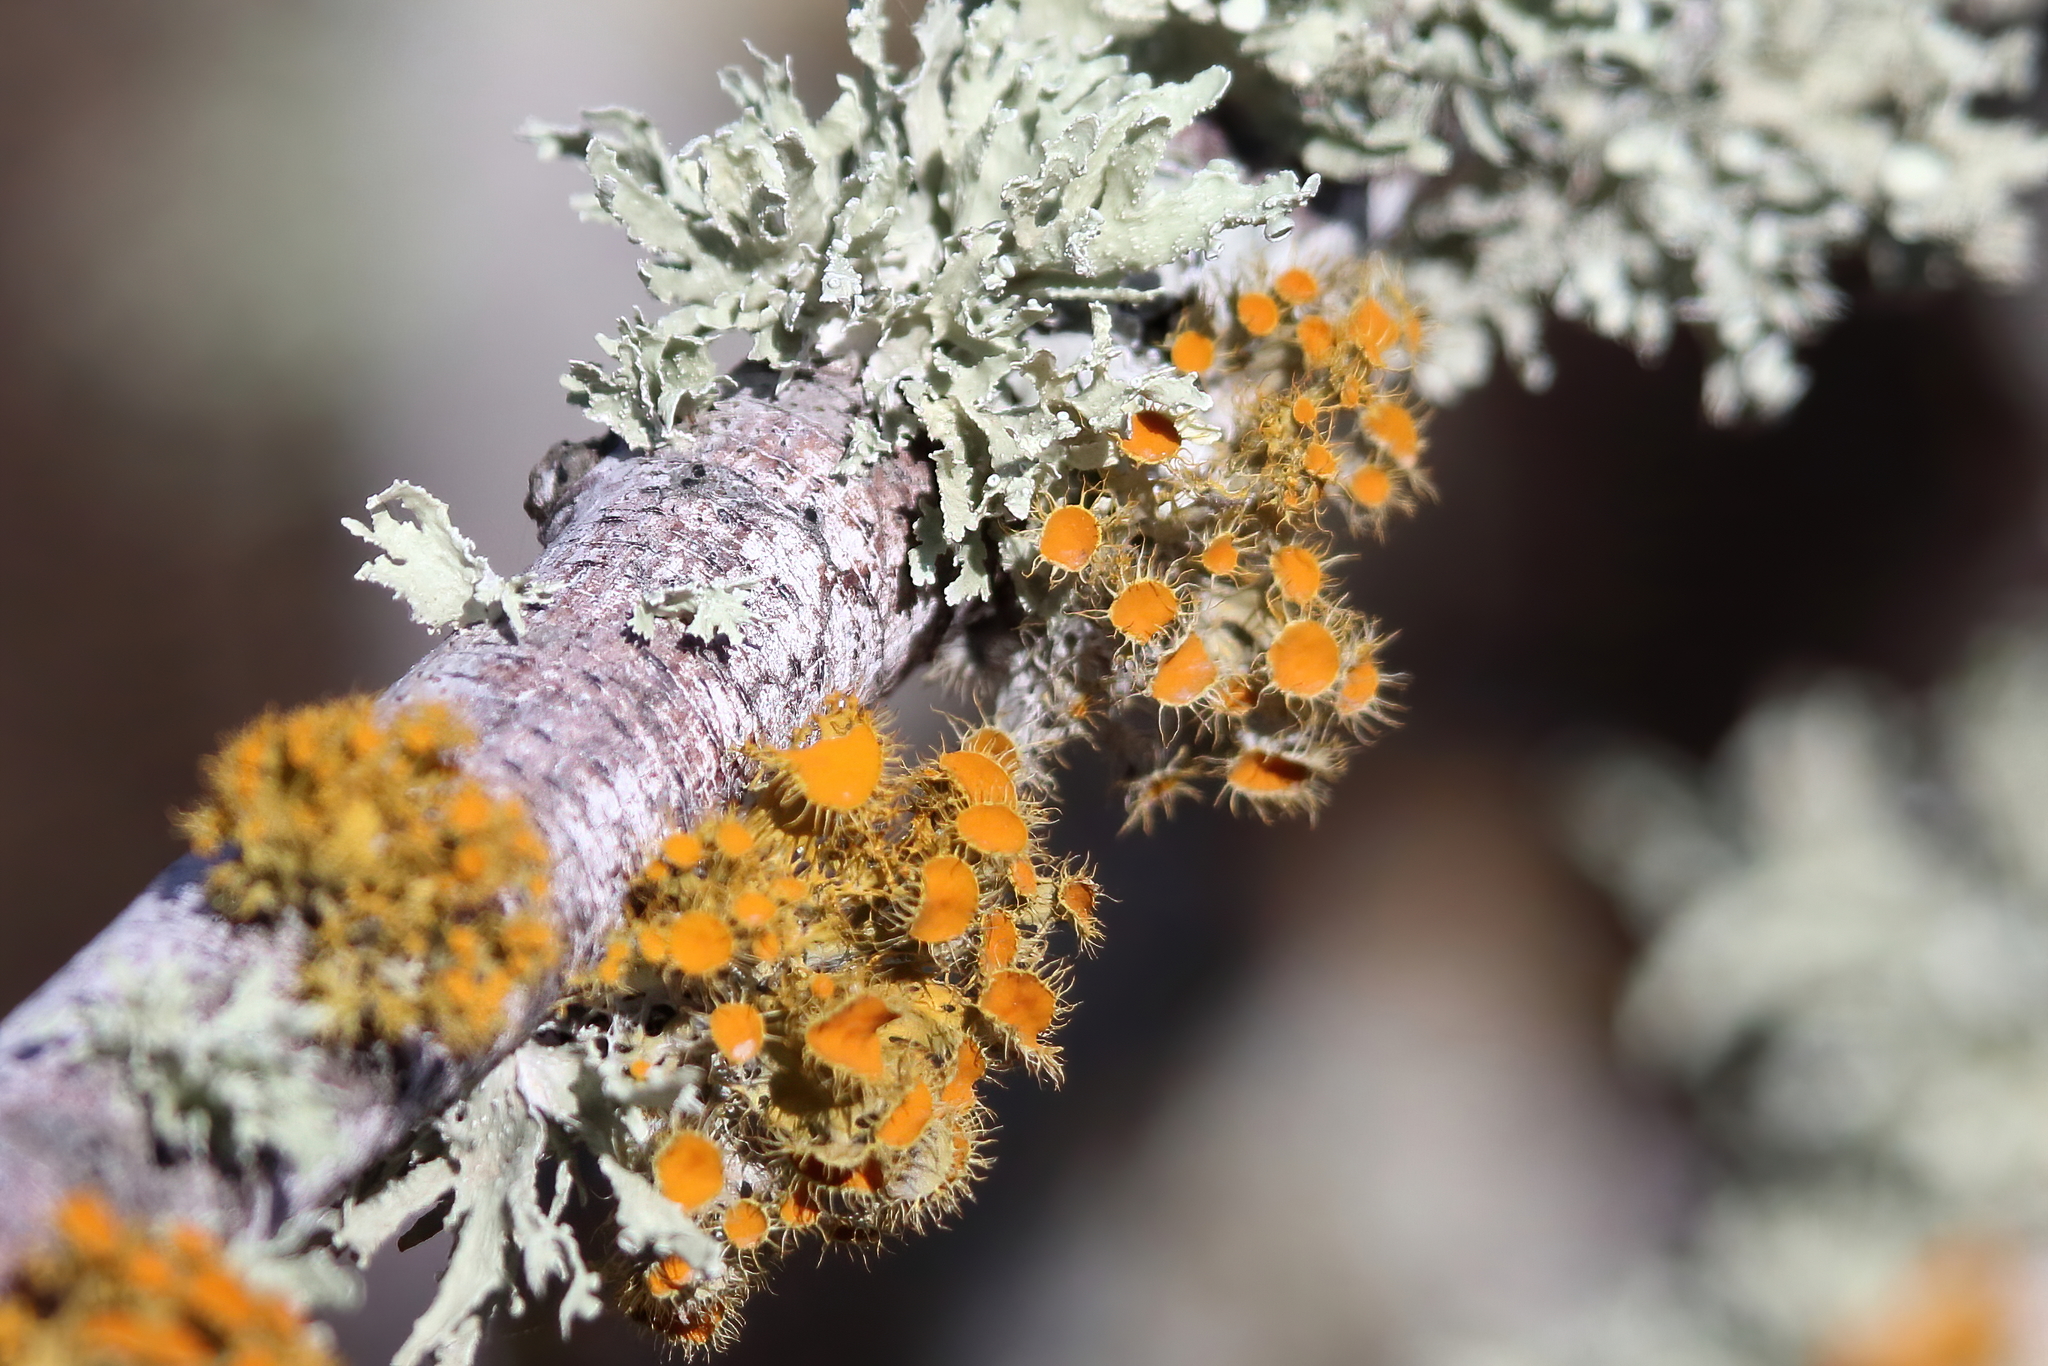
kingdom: Fungi
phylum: Ascomycota
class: Lecanoromycetes
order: Teloschistales
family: Teloschistaceae
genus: Niorma
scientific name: Niorma chrysophthalma
